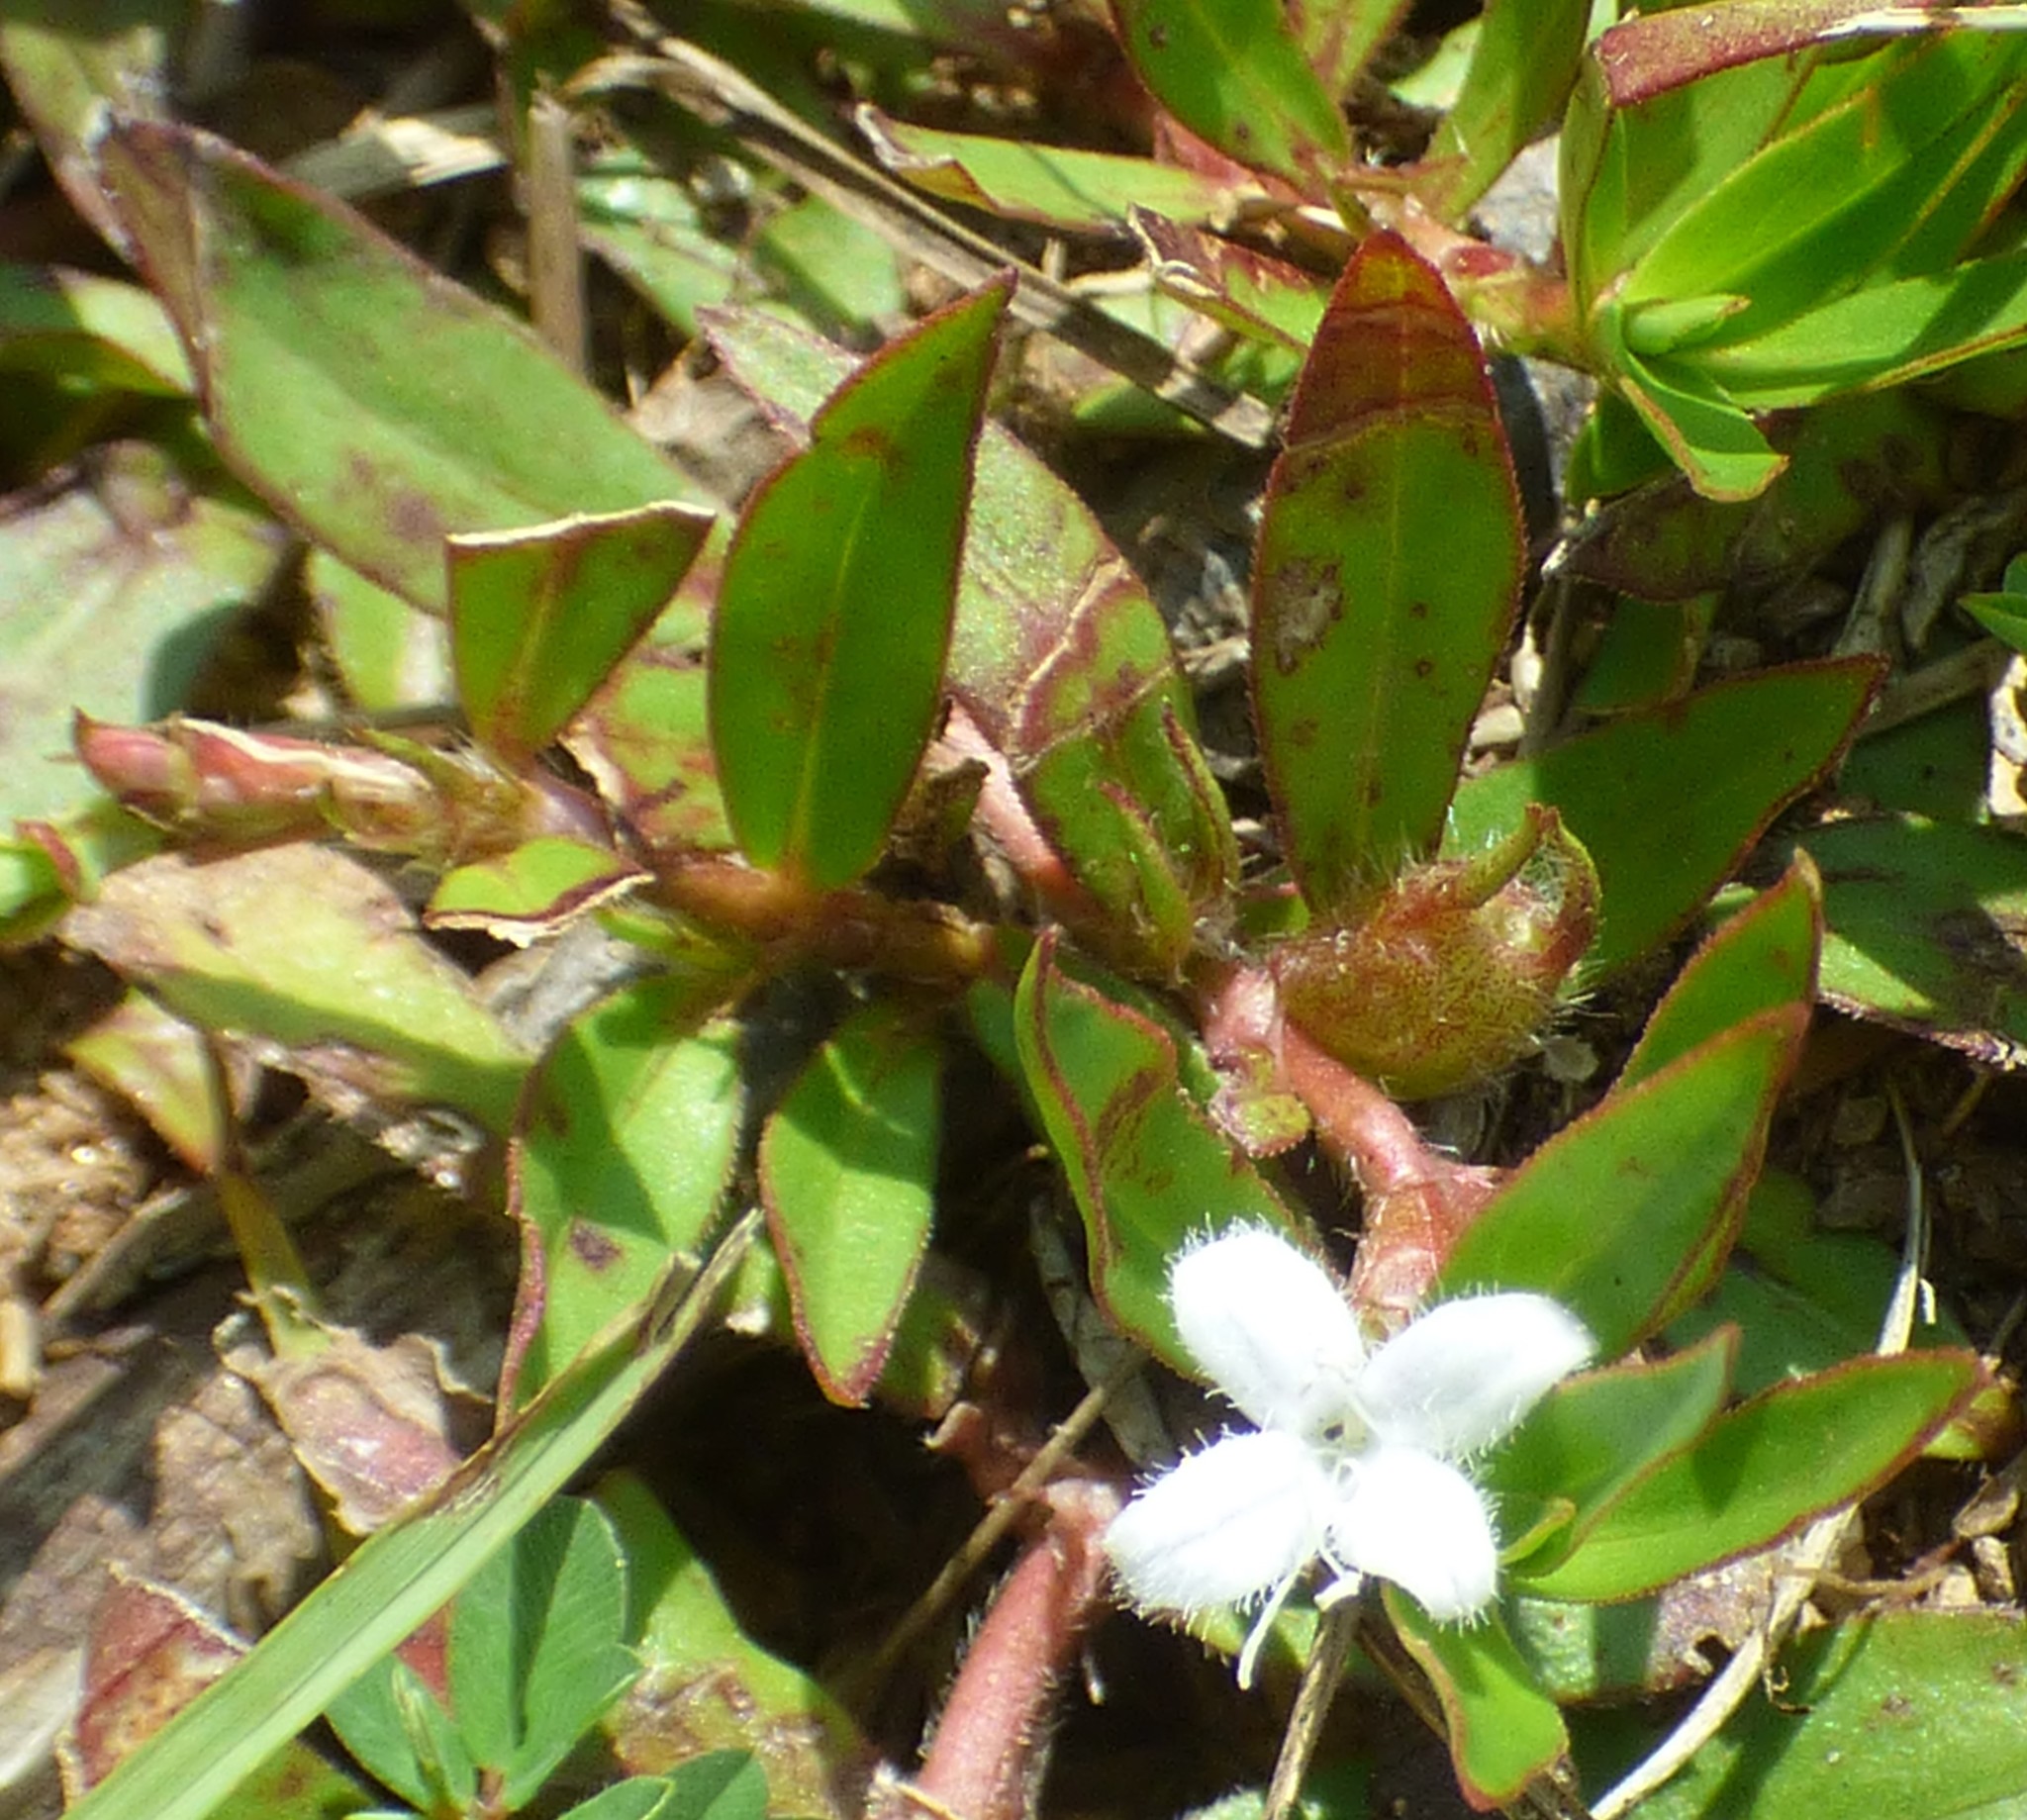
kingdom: Plantae
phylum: Tracheophyta
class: Magnoliopsida
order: Gentianales
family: Rubiaceae
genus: Diodia
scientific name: Diodia virginiana
